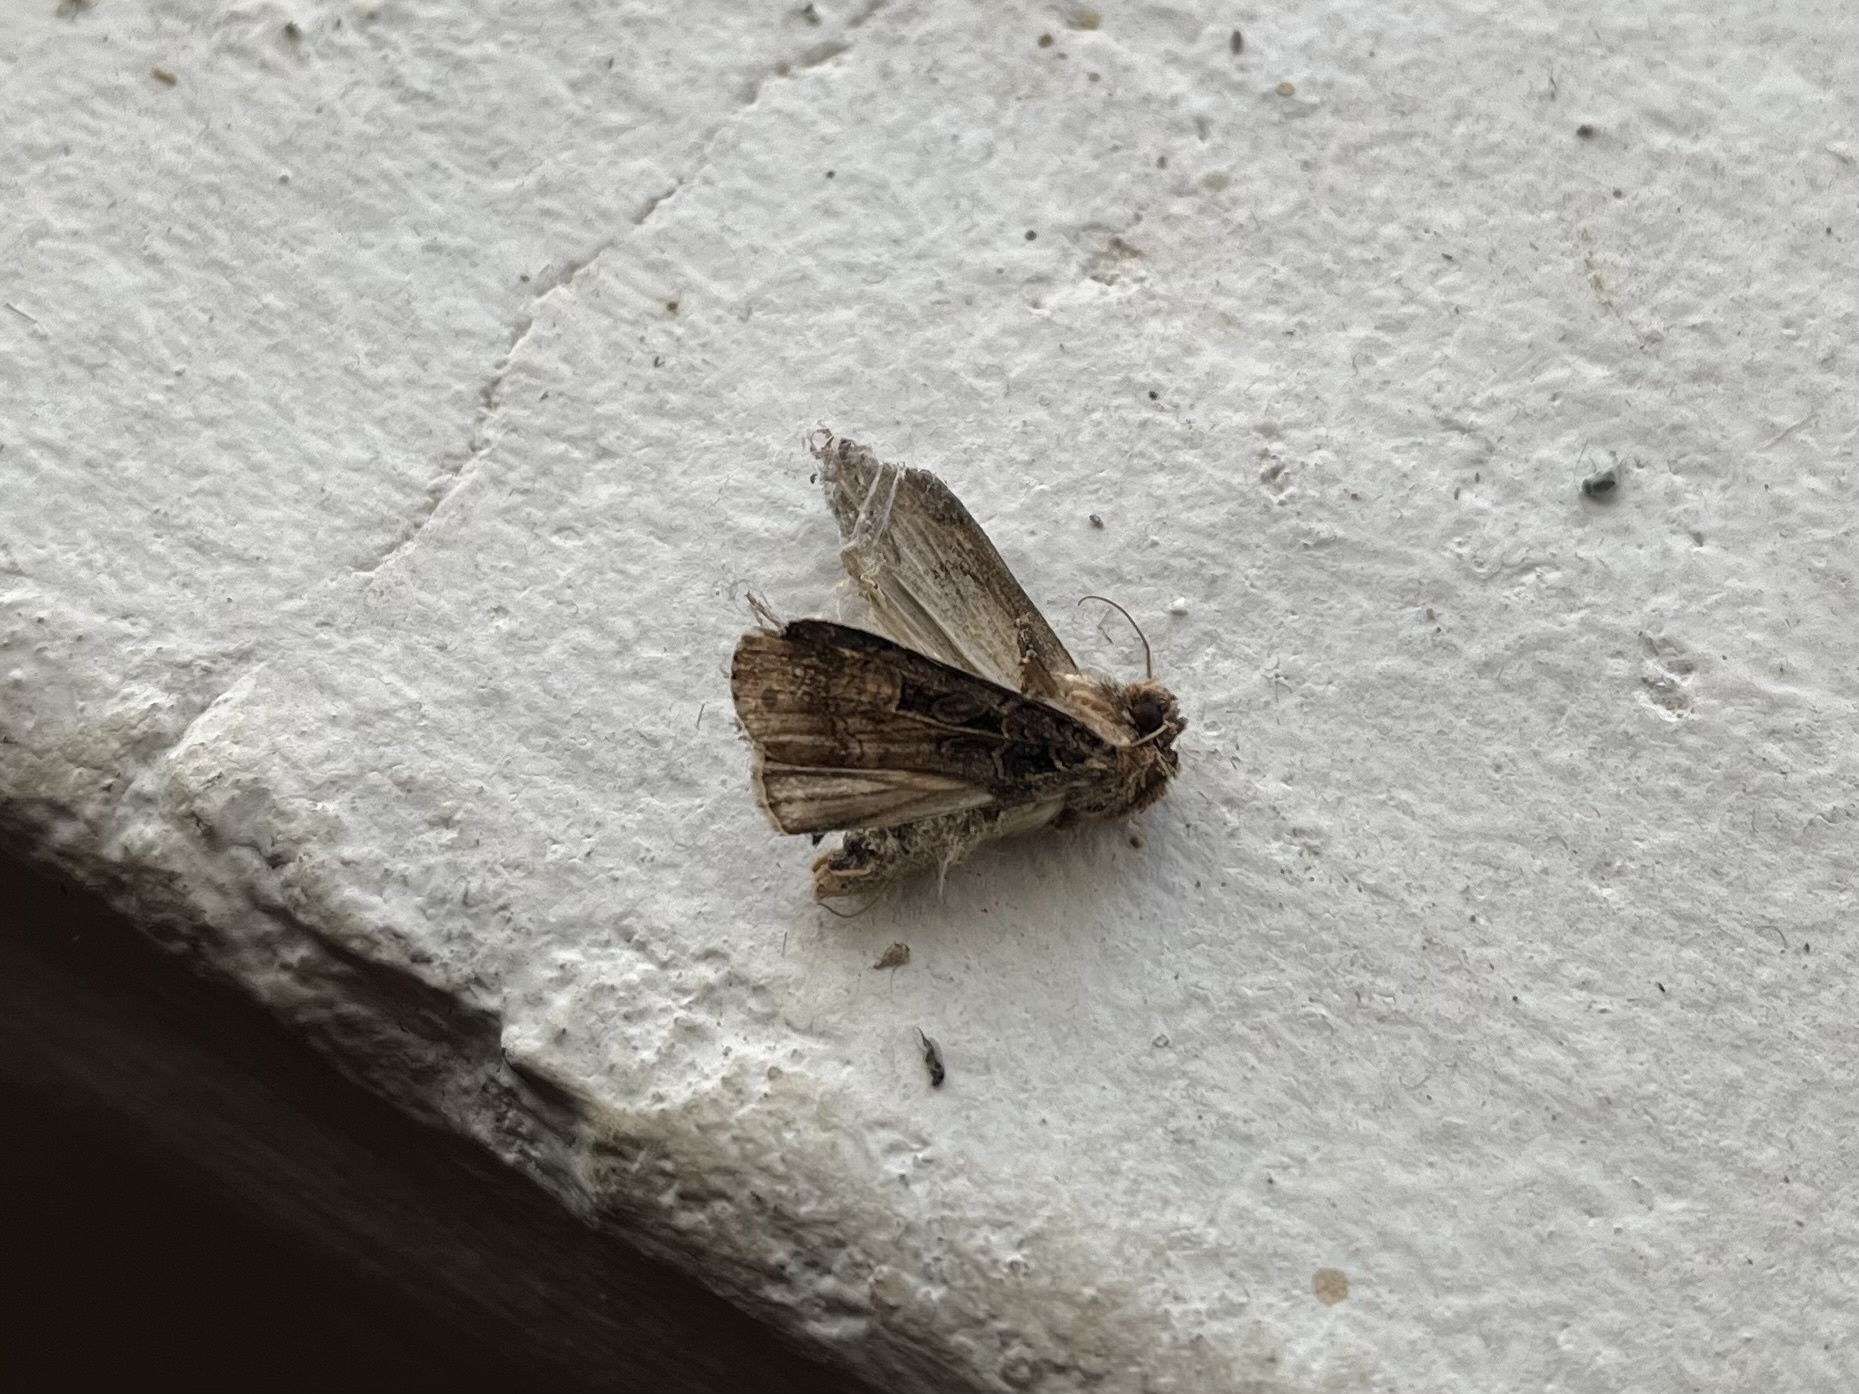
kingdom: Animalia
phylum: Arthropoda
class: Insecta
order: Lepidoptera
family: Noctuidae
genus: Opigena
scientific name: Opigena polygona
